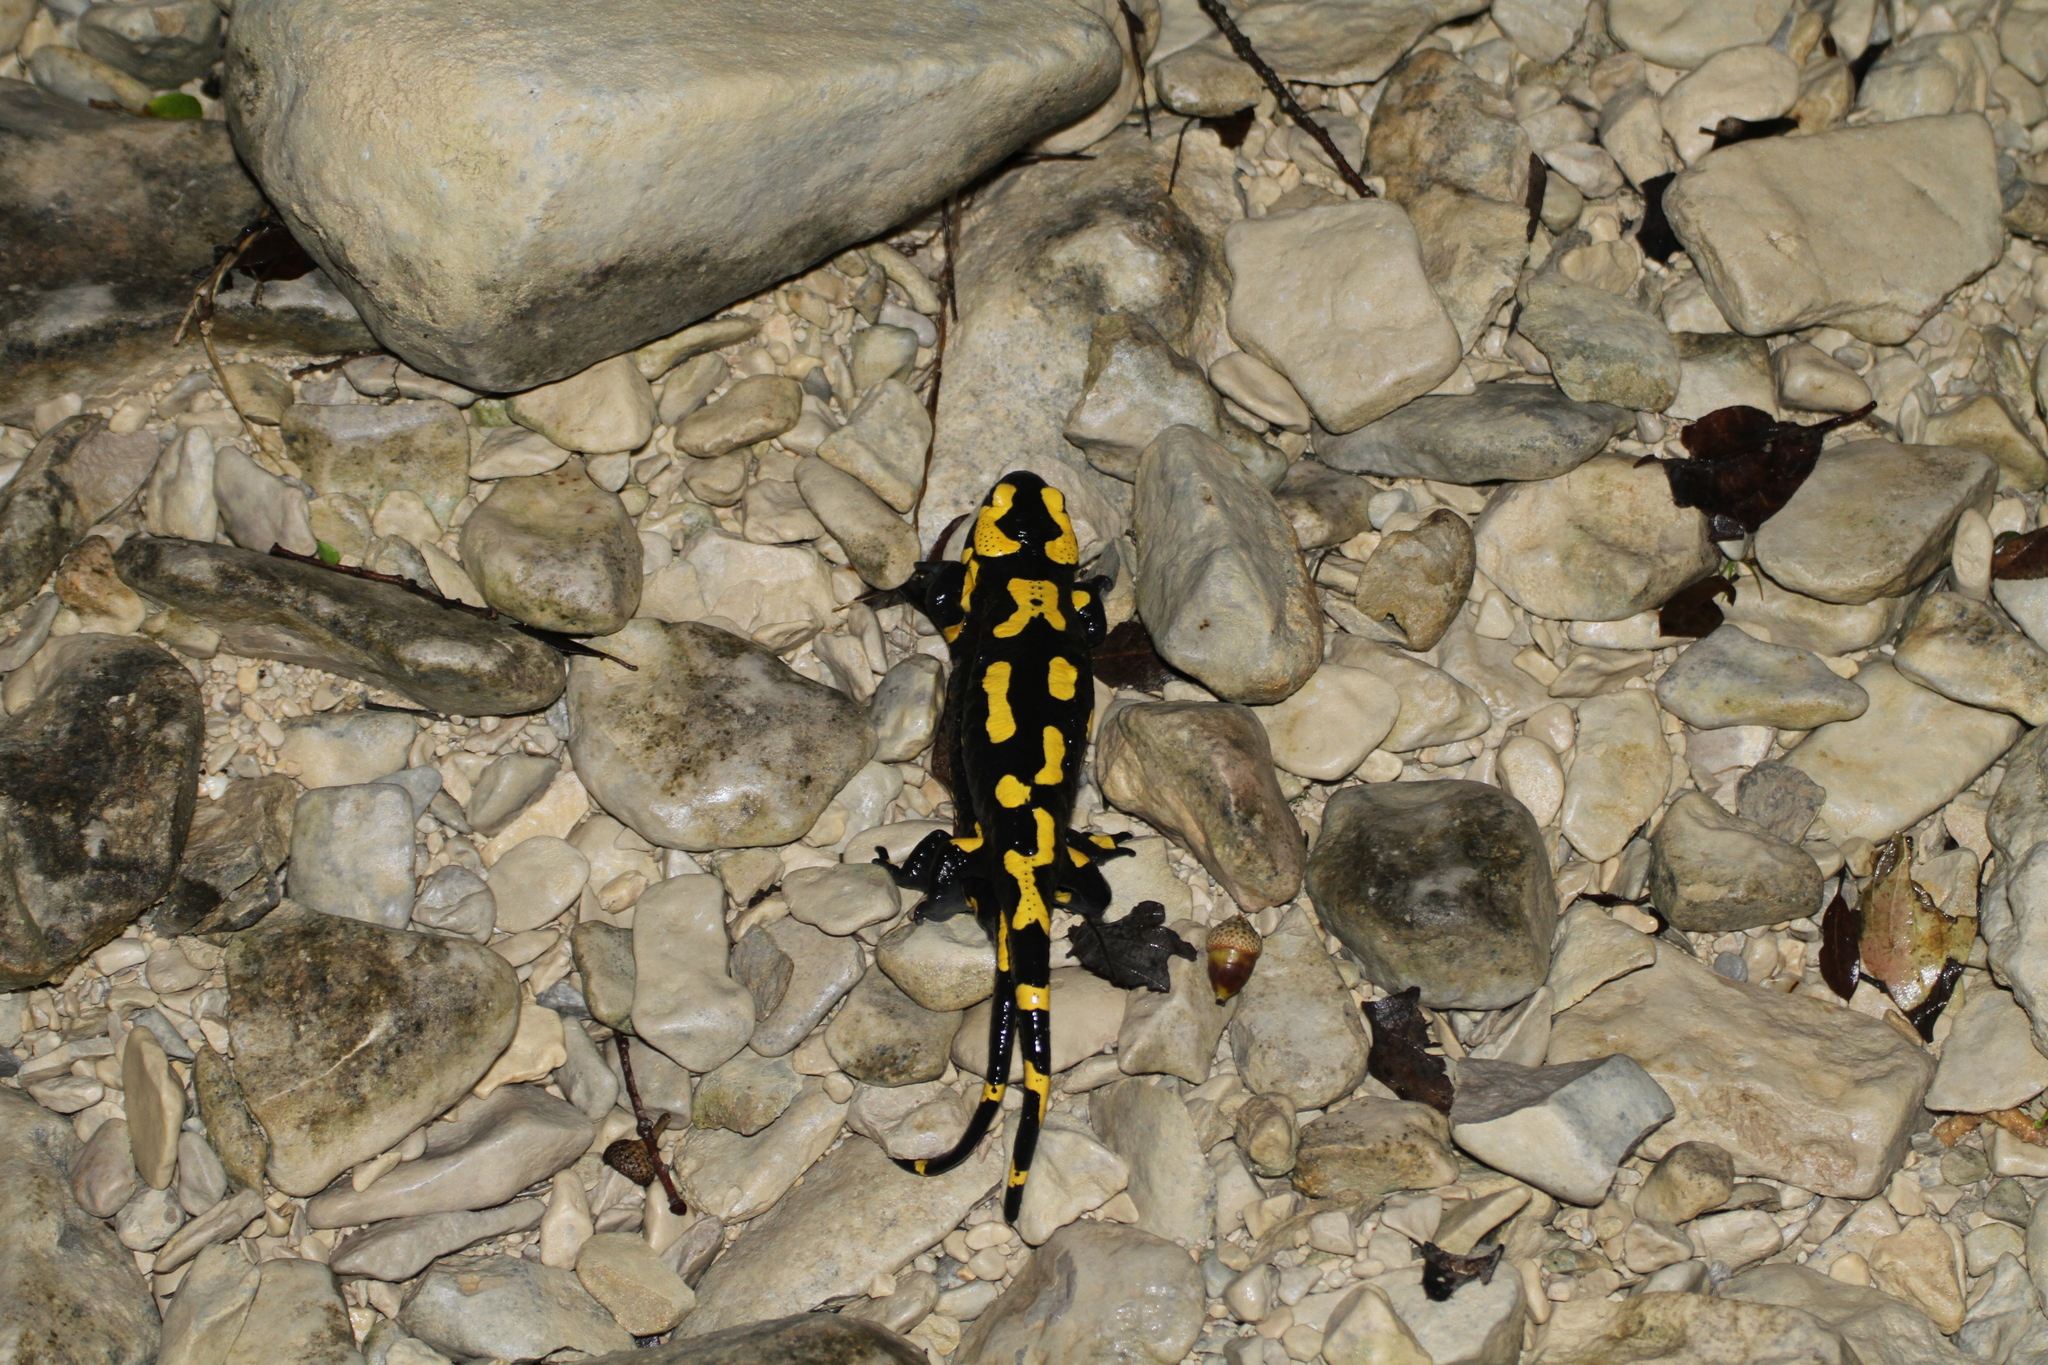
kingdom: Animalia
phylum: Chordata
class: Amphibia
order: Caudata
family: Salamandridae
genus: Salamandra
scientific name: Salamandra salamandra
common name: Fire salamander
